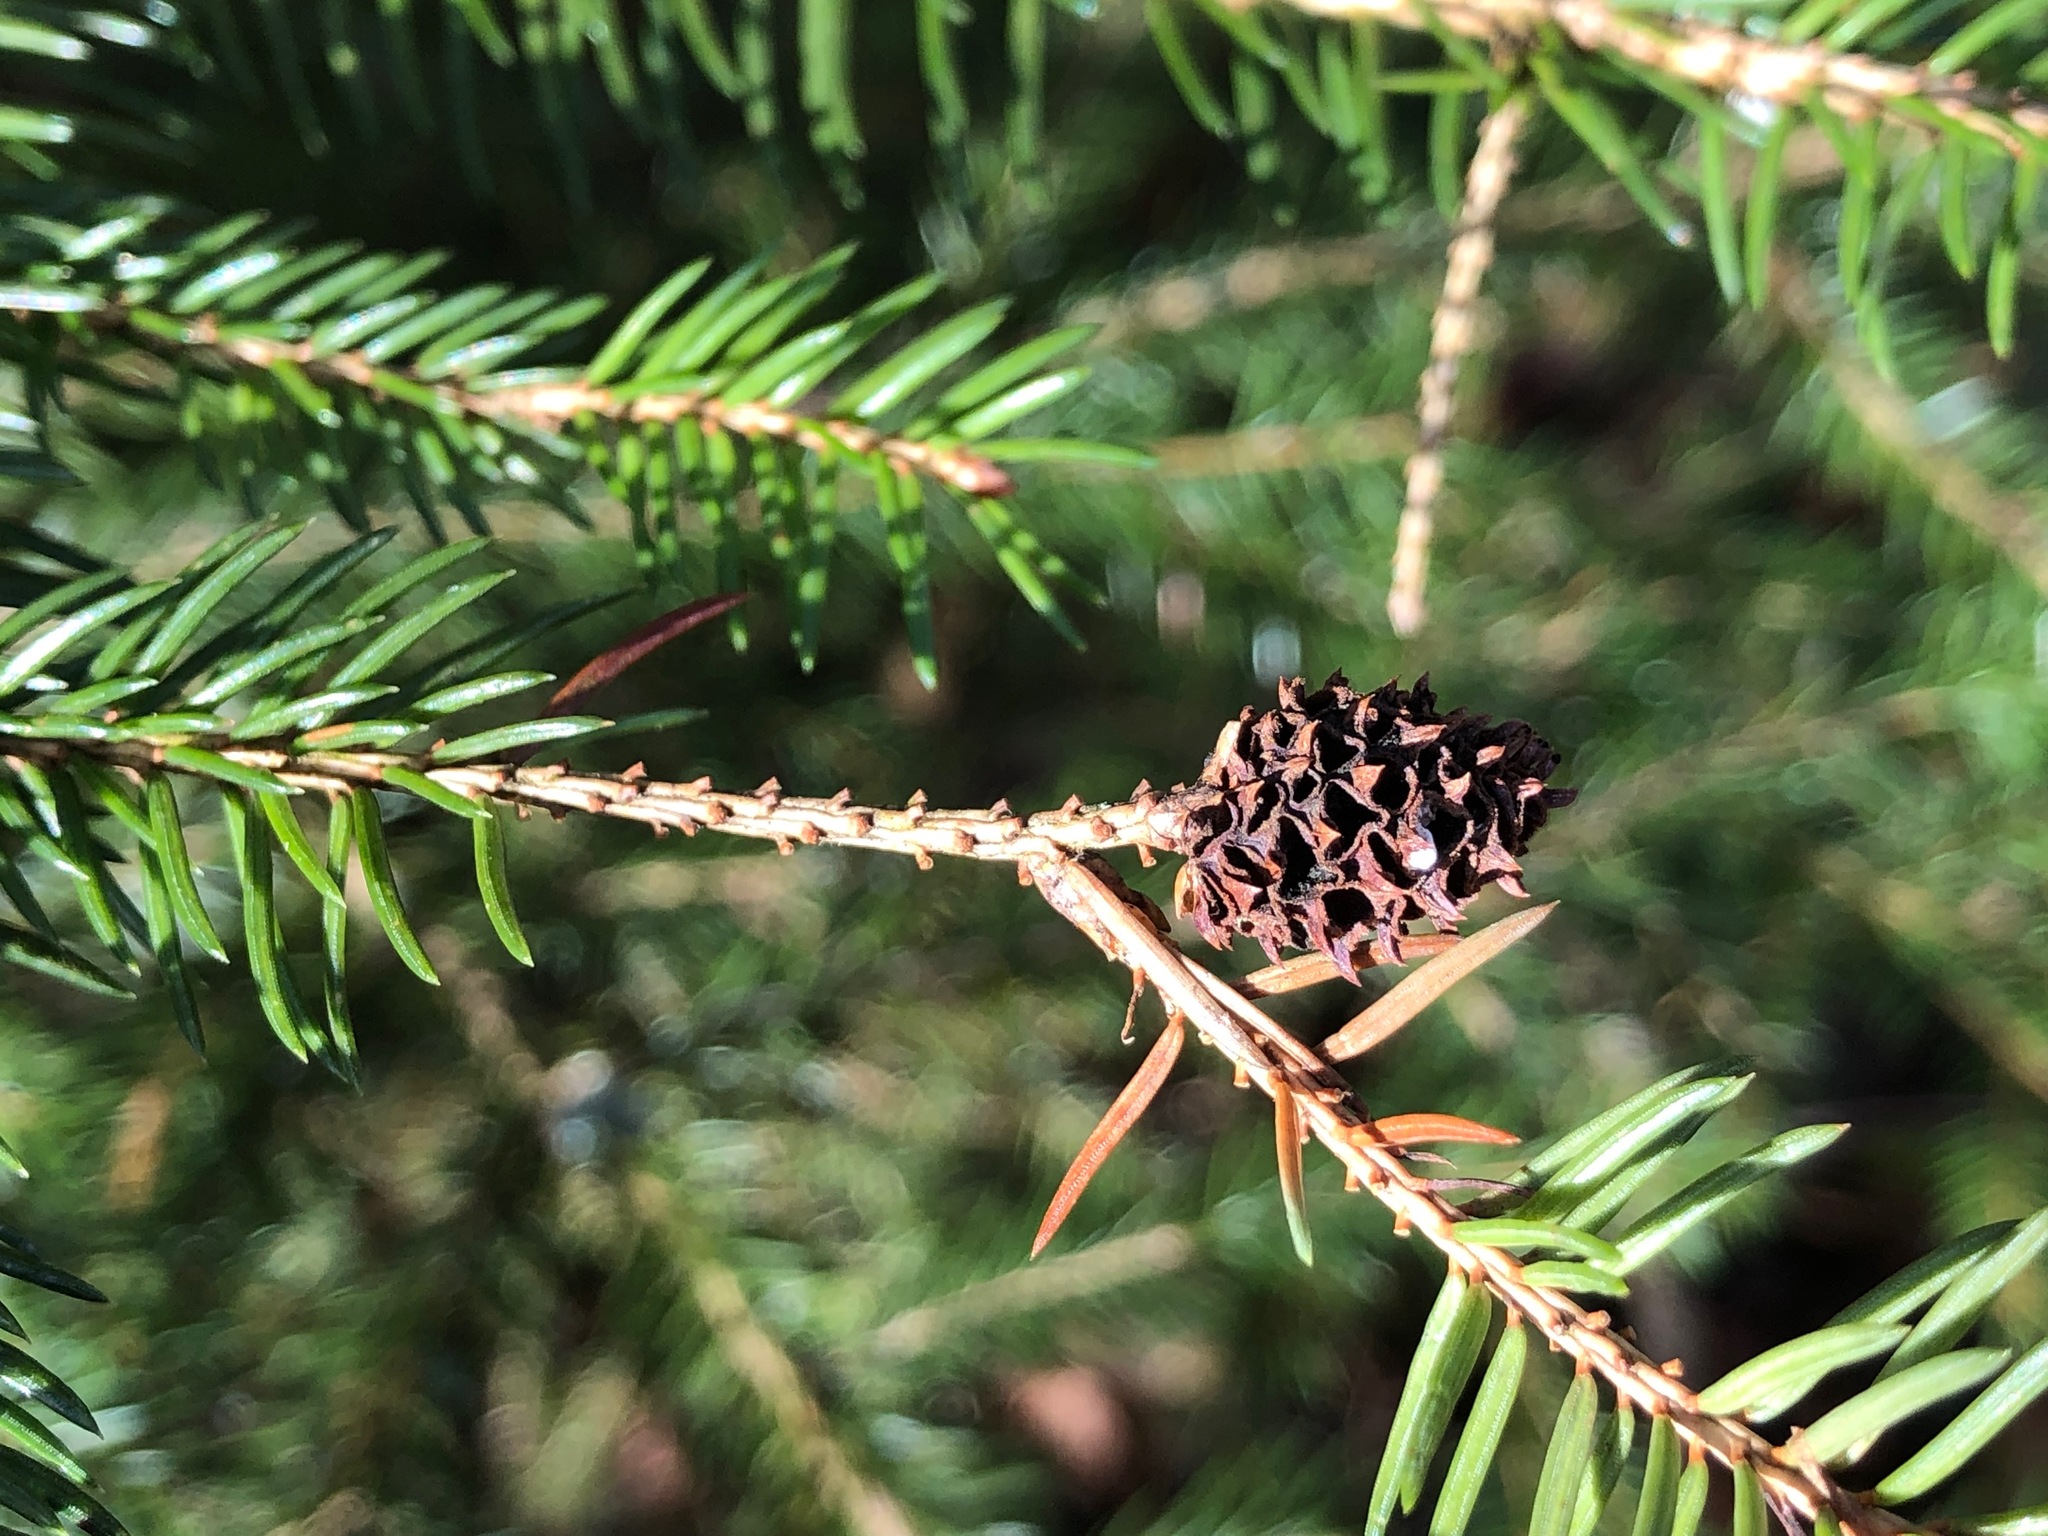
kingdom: Animalia
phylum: Arthropoda
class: Insecta
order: Hemiptera
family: Adelgidae
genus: Adelges
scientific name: Adelges viridis
